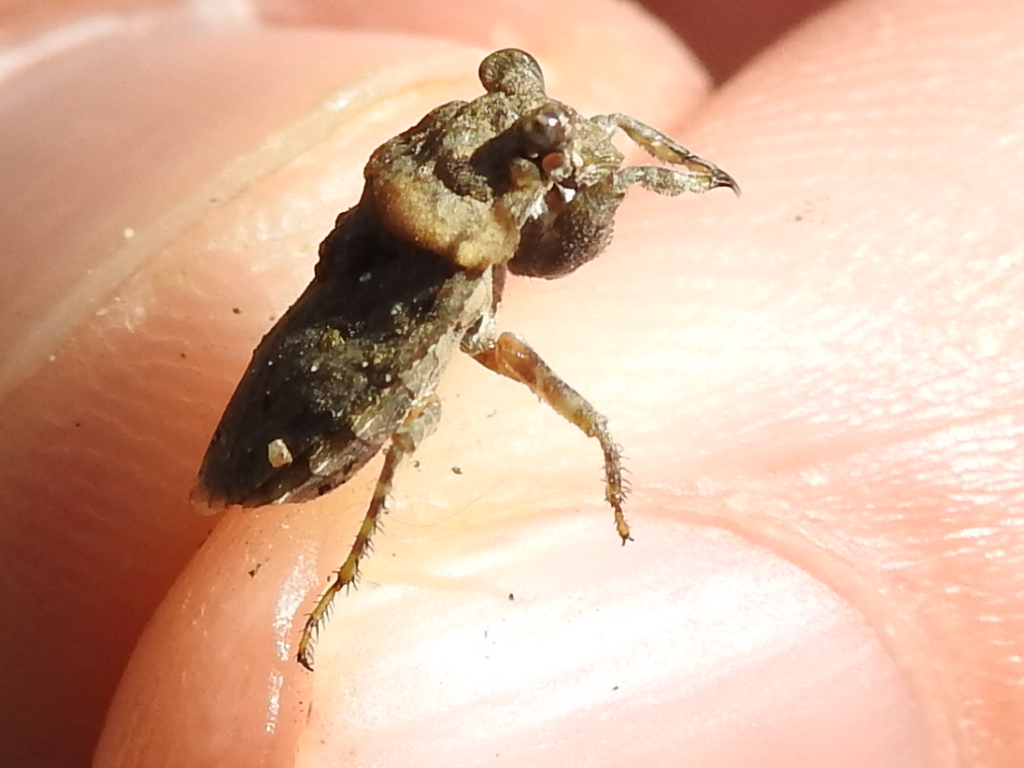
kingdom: Animalia
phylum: Arthropoda
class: Insecta
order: Hemiptera
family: Gelastocoridae
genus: Gelastocoris
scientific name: Gelastocoris oculatus
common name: Toad bug
